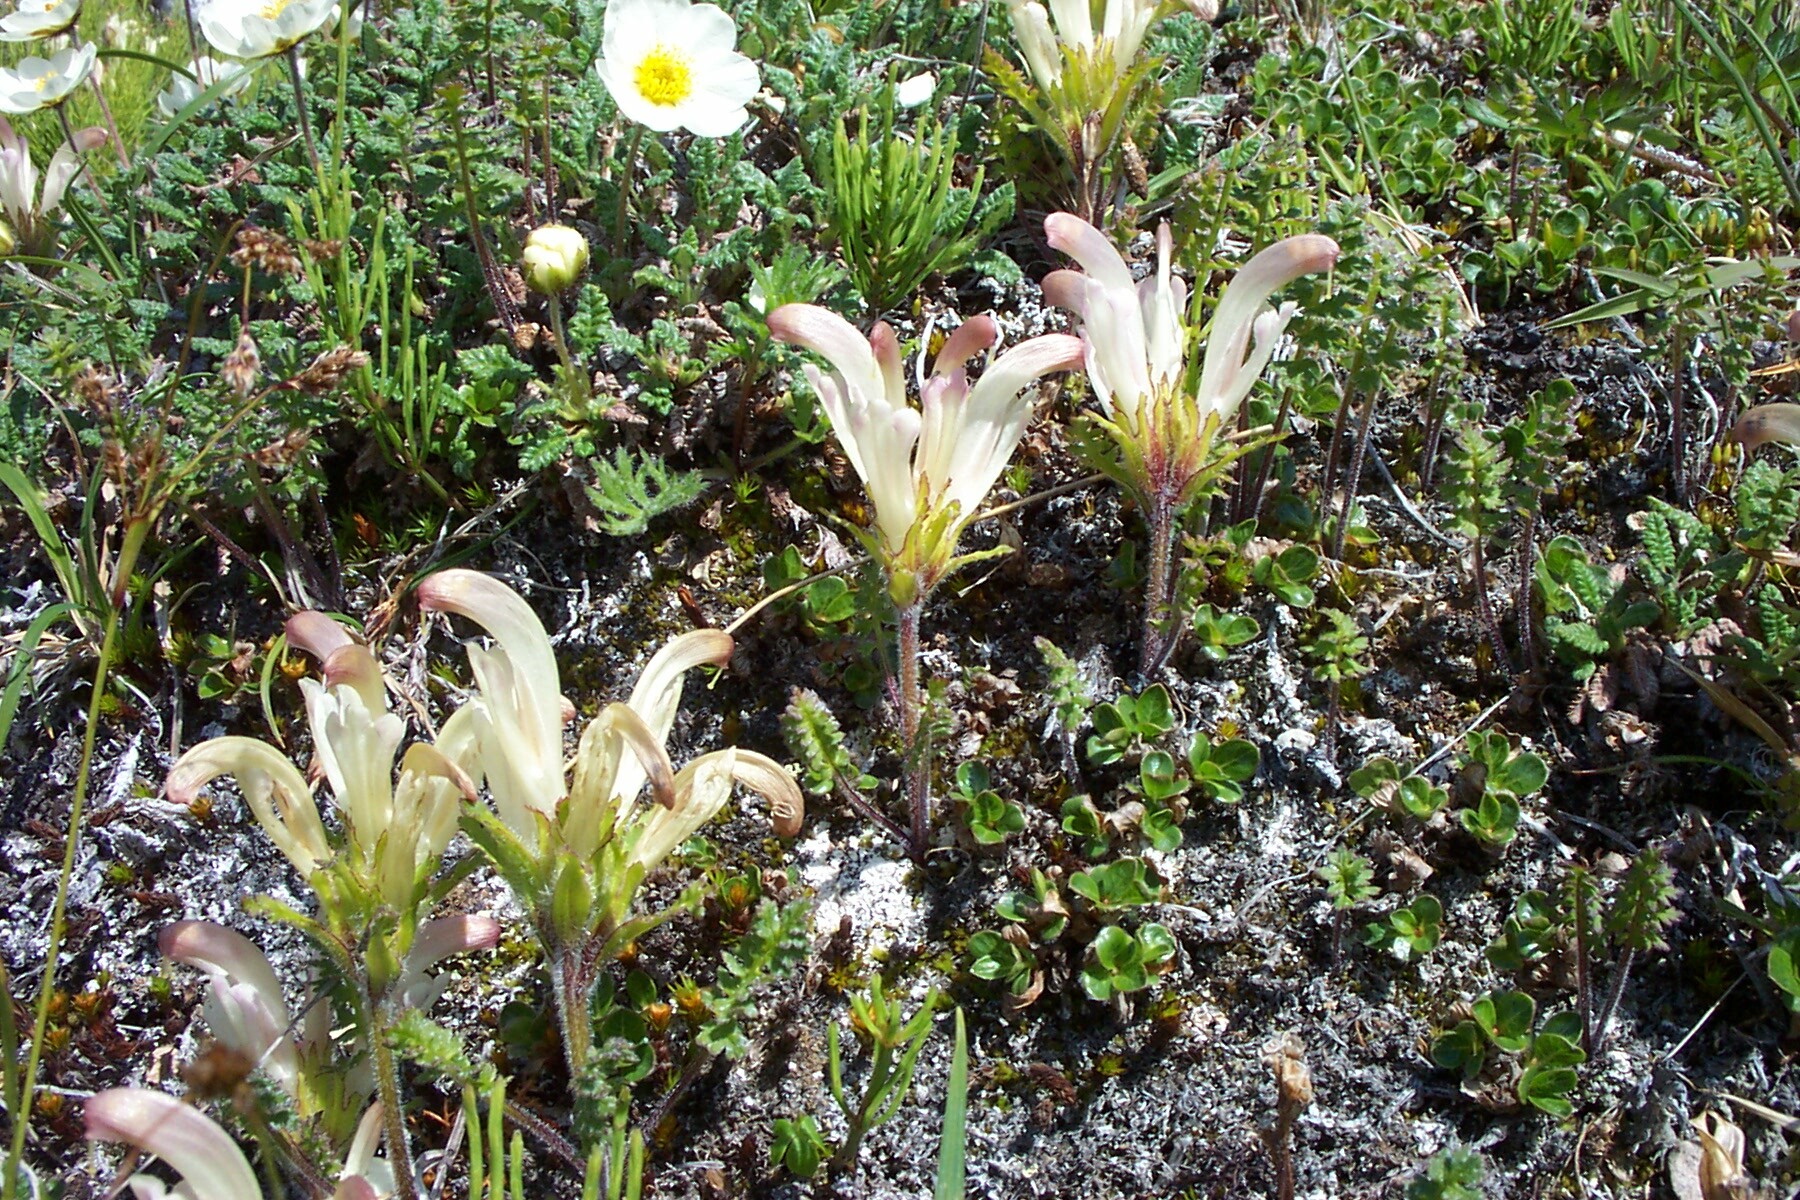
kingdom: Plantae
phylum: Tracheophyta
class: Magnoliopsida
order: Lamiales
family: Orobanchaceae
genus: Pedicularis
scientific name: Pedicularis capitata
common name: Capitate lousewort
